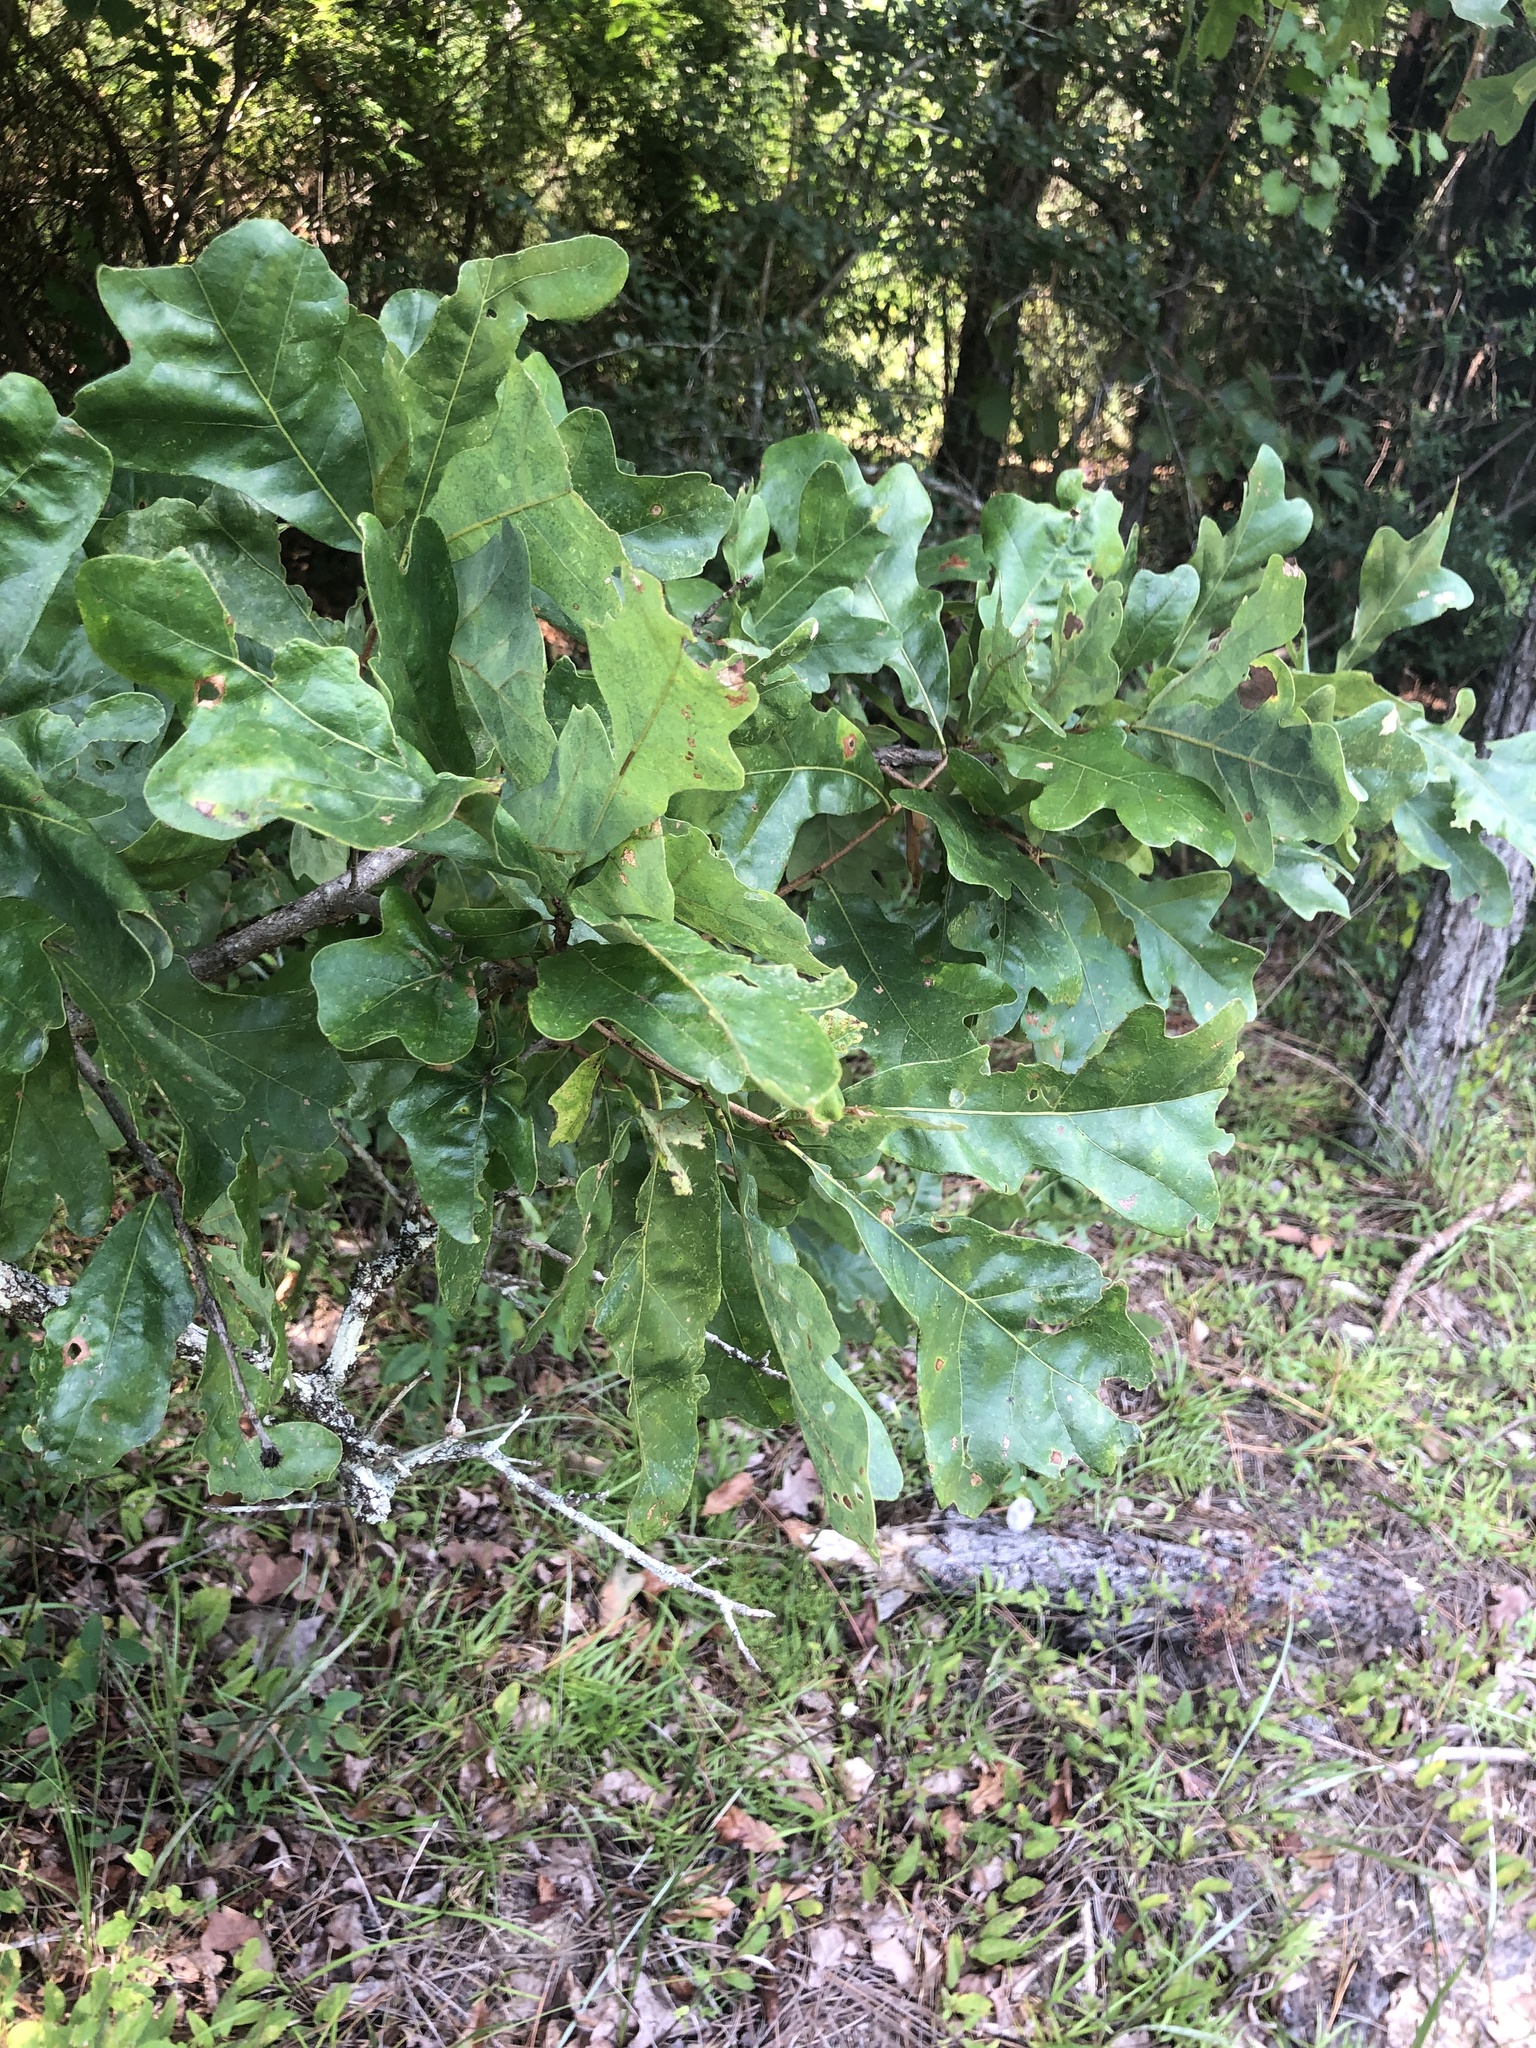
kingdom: Plantae
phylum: Tracheophyta
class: Magnoliopsida
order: Fagales
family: Fagaceae
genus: Quercus
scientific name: Quercus margaretiae
